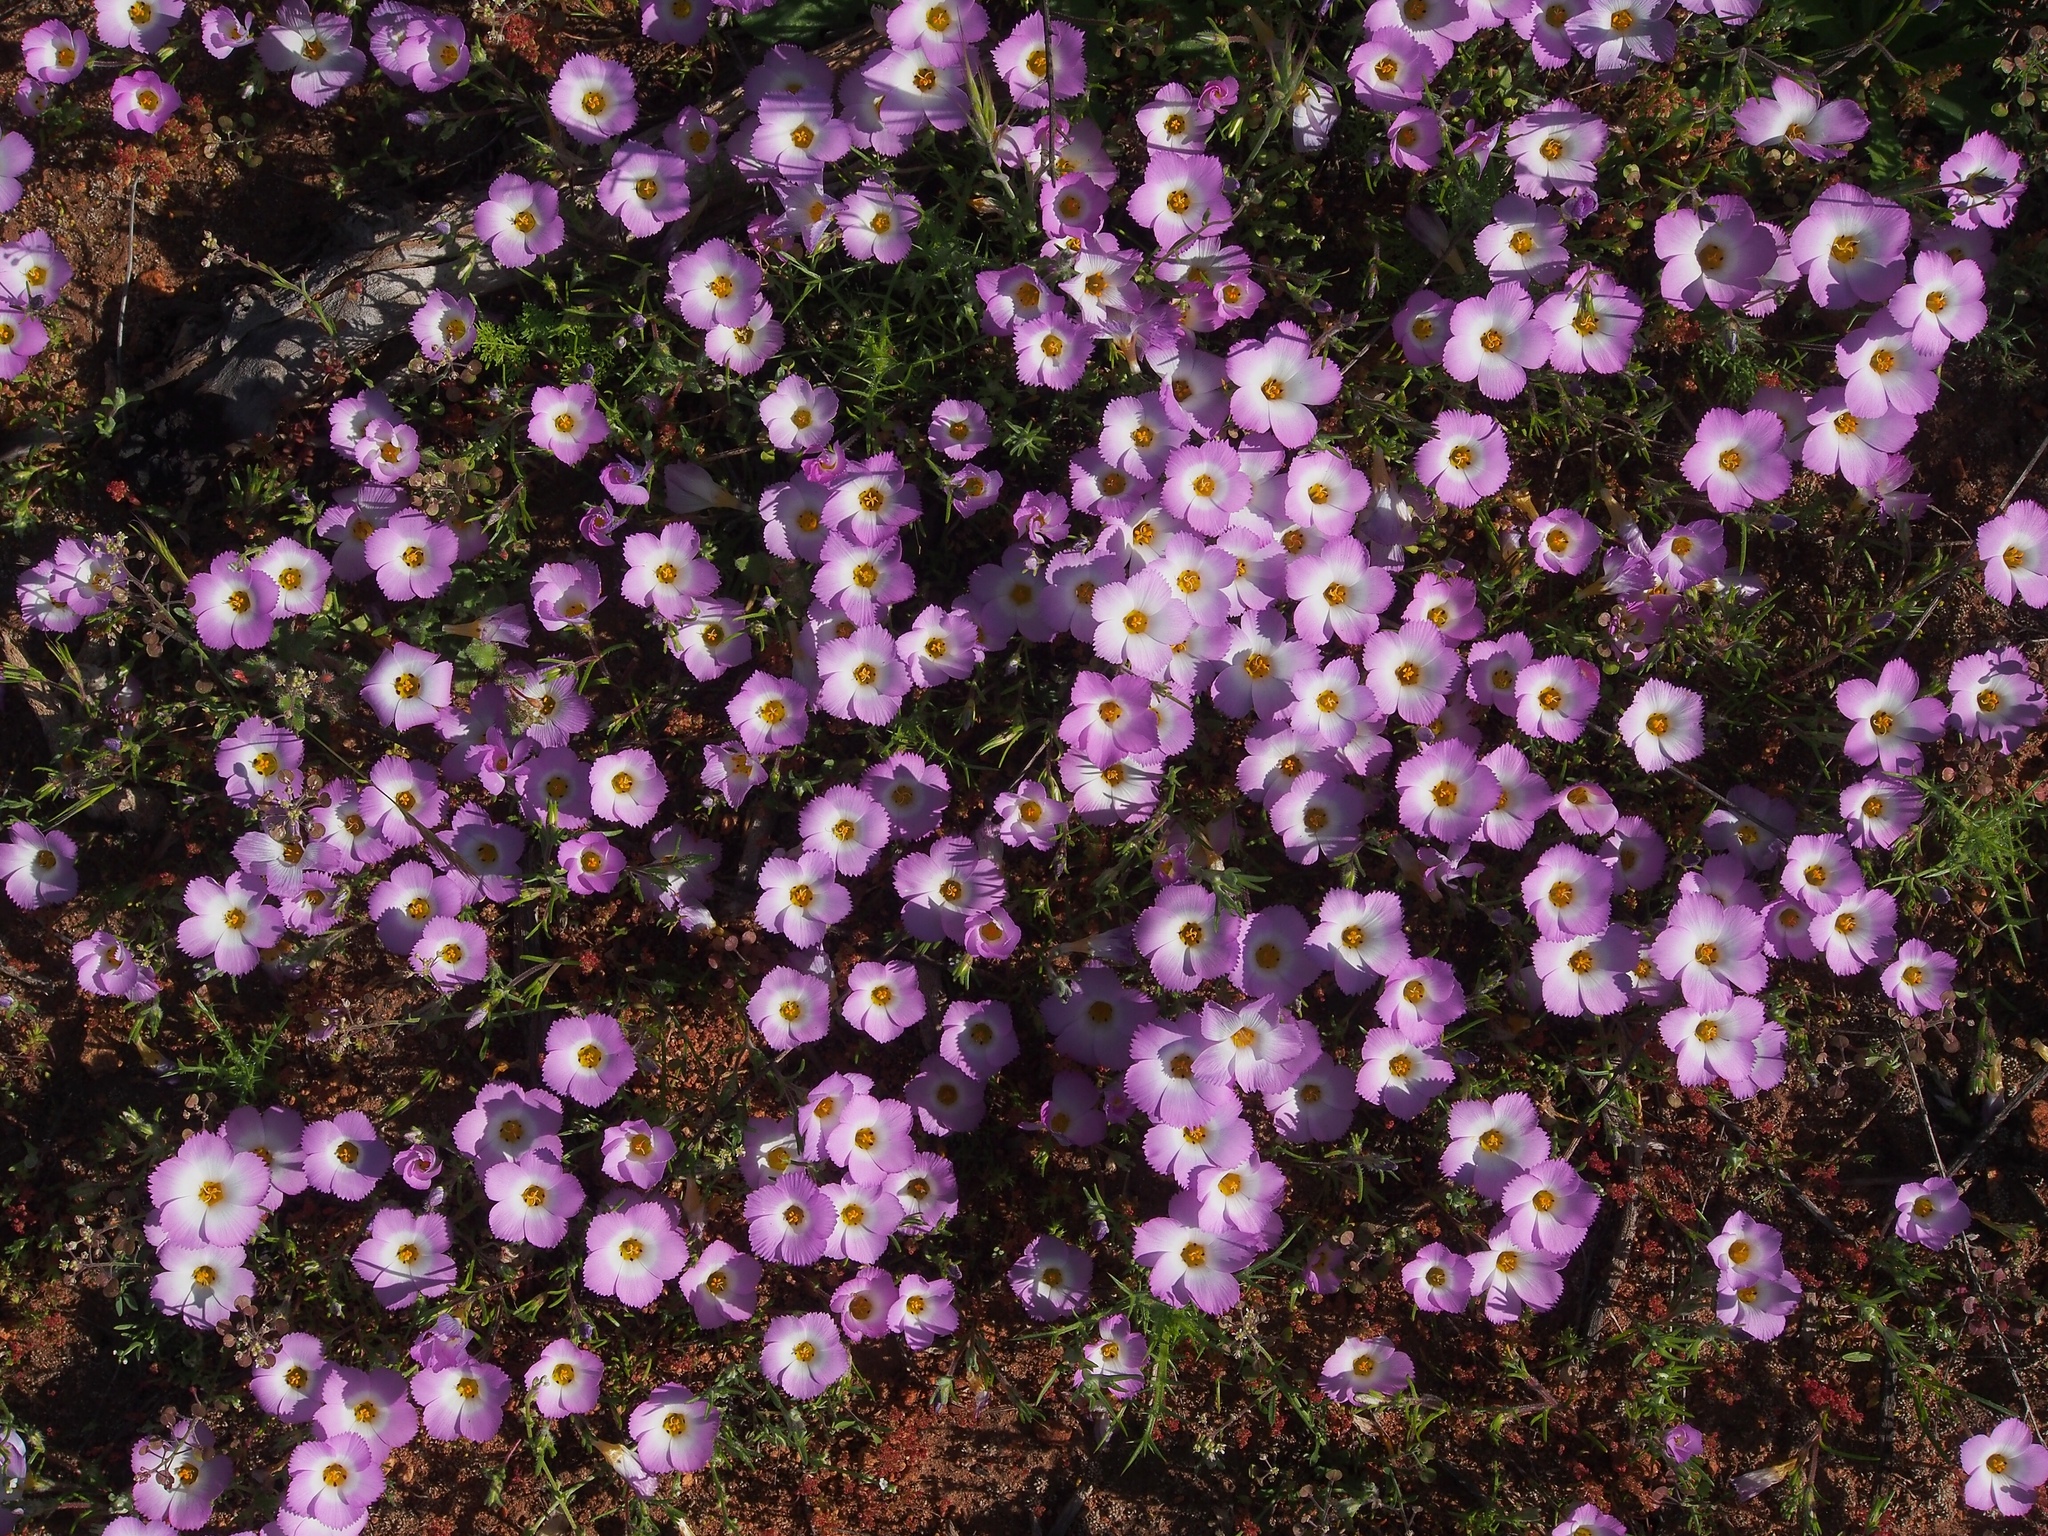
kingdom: Plantae
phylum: Tracheophyta
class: Magnoliopsida
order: Ericales
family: Polemoniaceae
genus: Linanthus
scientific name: Linanthus dianthiflorus
